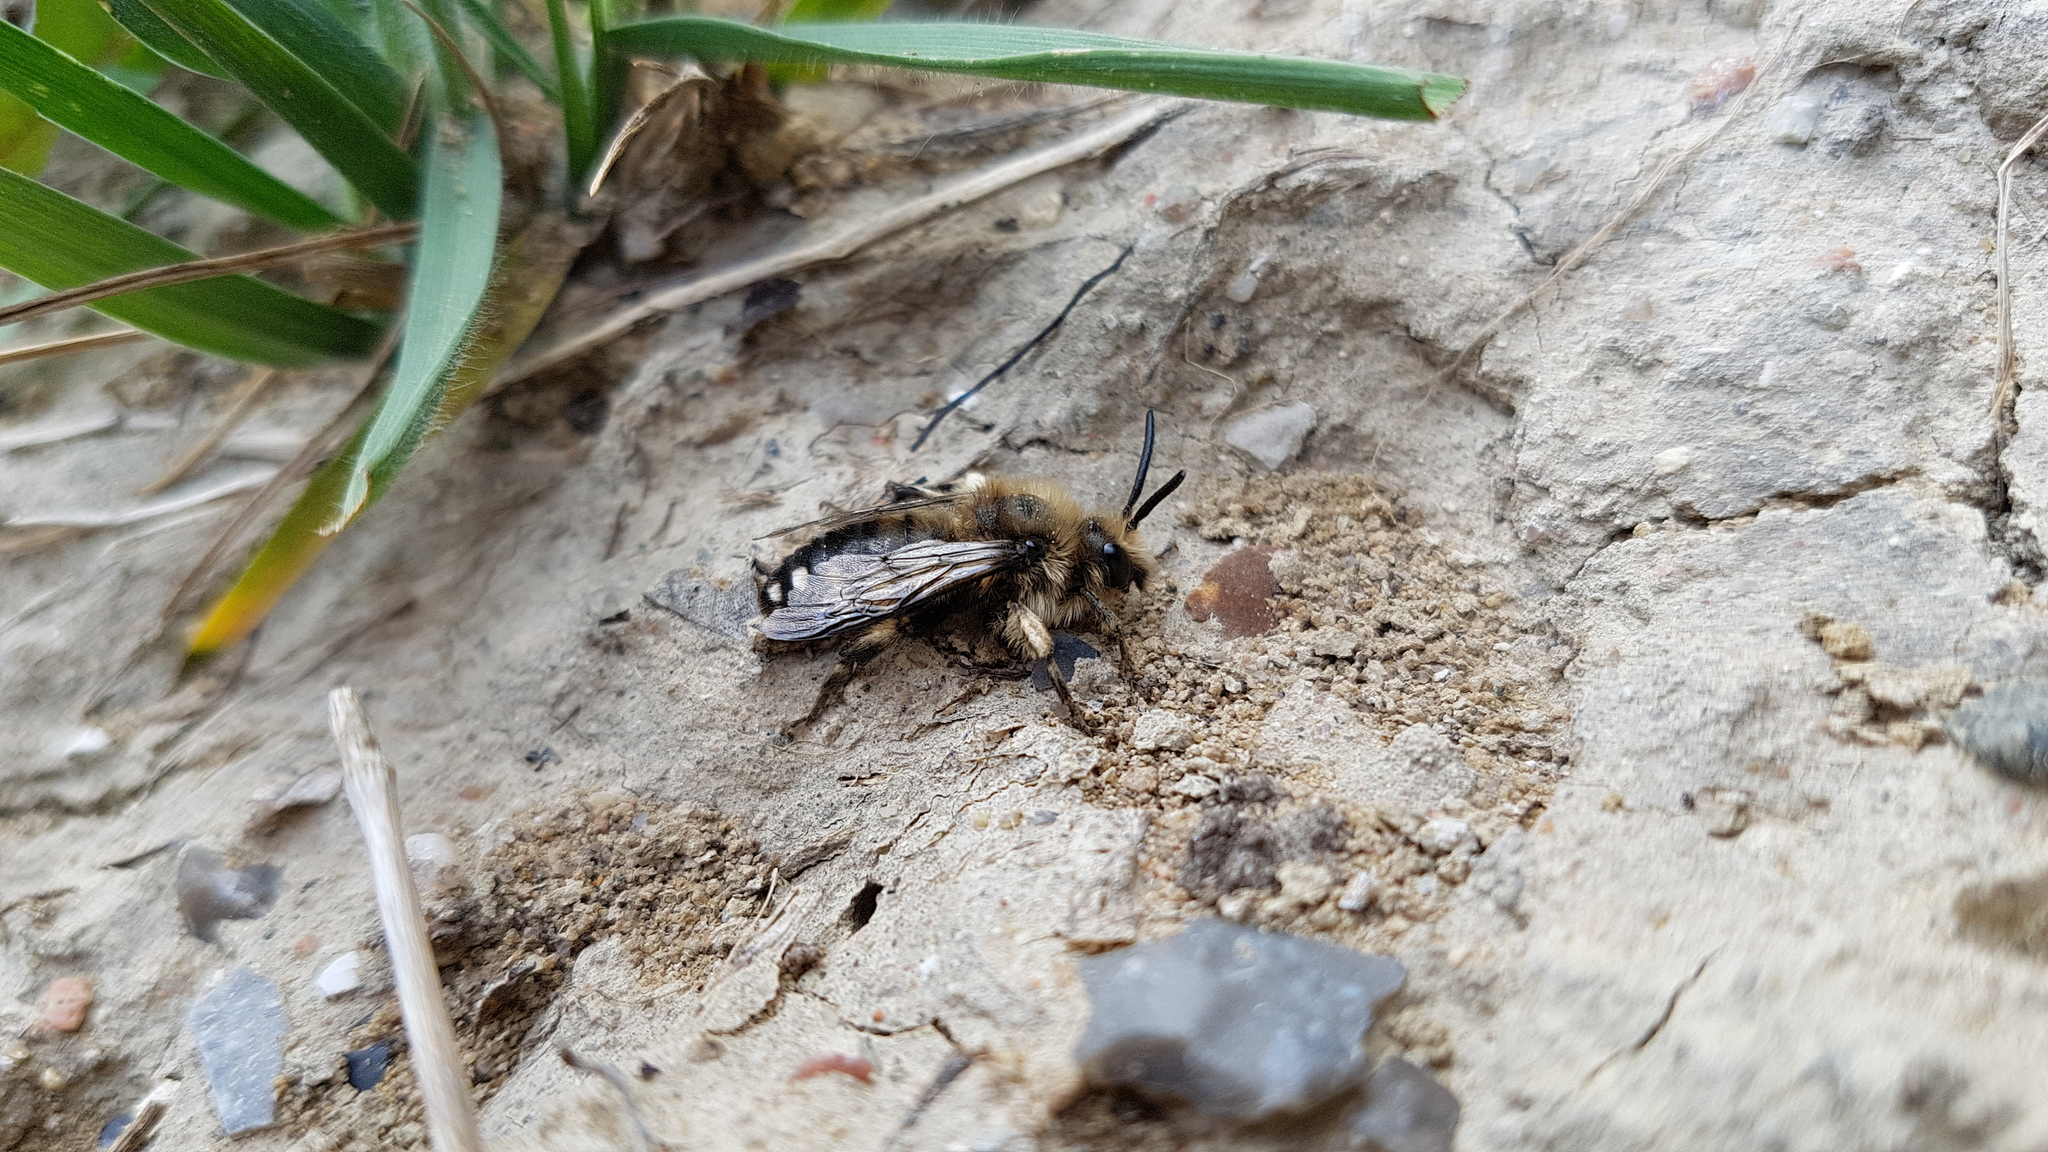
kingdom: Animalia
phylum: Arthropoda
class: Insecta
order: Hymenoptera
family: Apidae
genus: Melecta
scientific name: Melecta albifrons
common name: Common mourning bee
